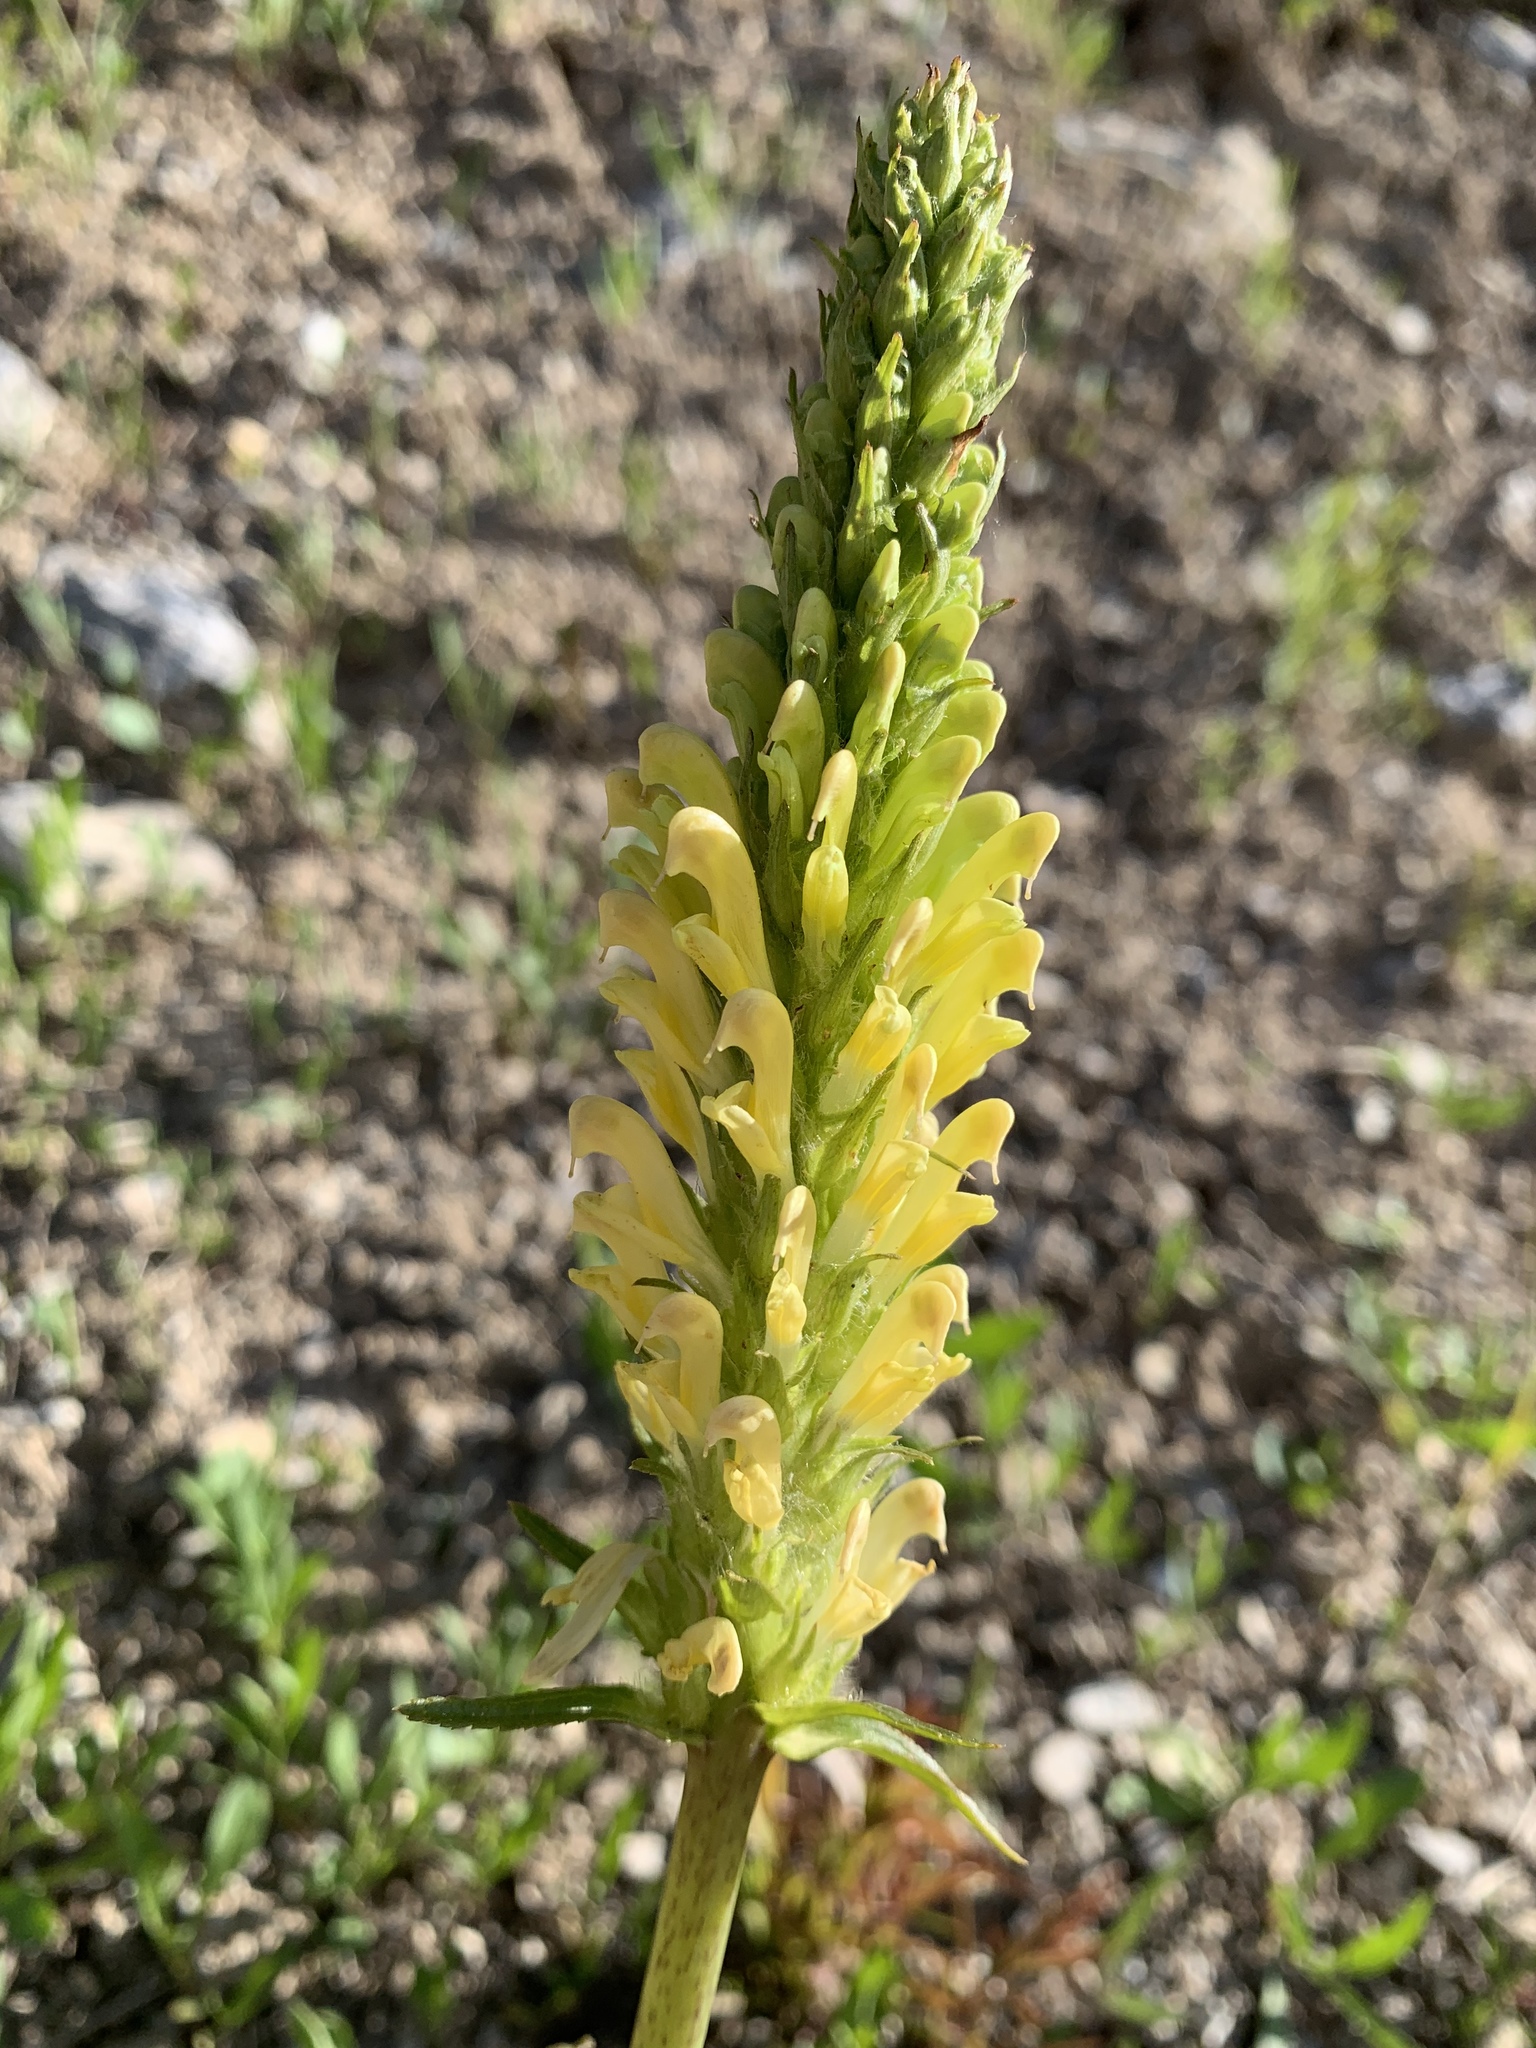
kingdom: Plantae
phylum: Tracheophyta
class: Magnoliopsida
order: Lamiales
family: Orobanchaceae
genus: Pedicularis
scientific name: Pedicularis bracteosa
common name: Bracted lousewort
